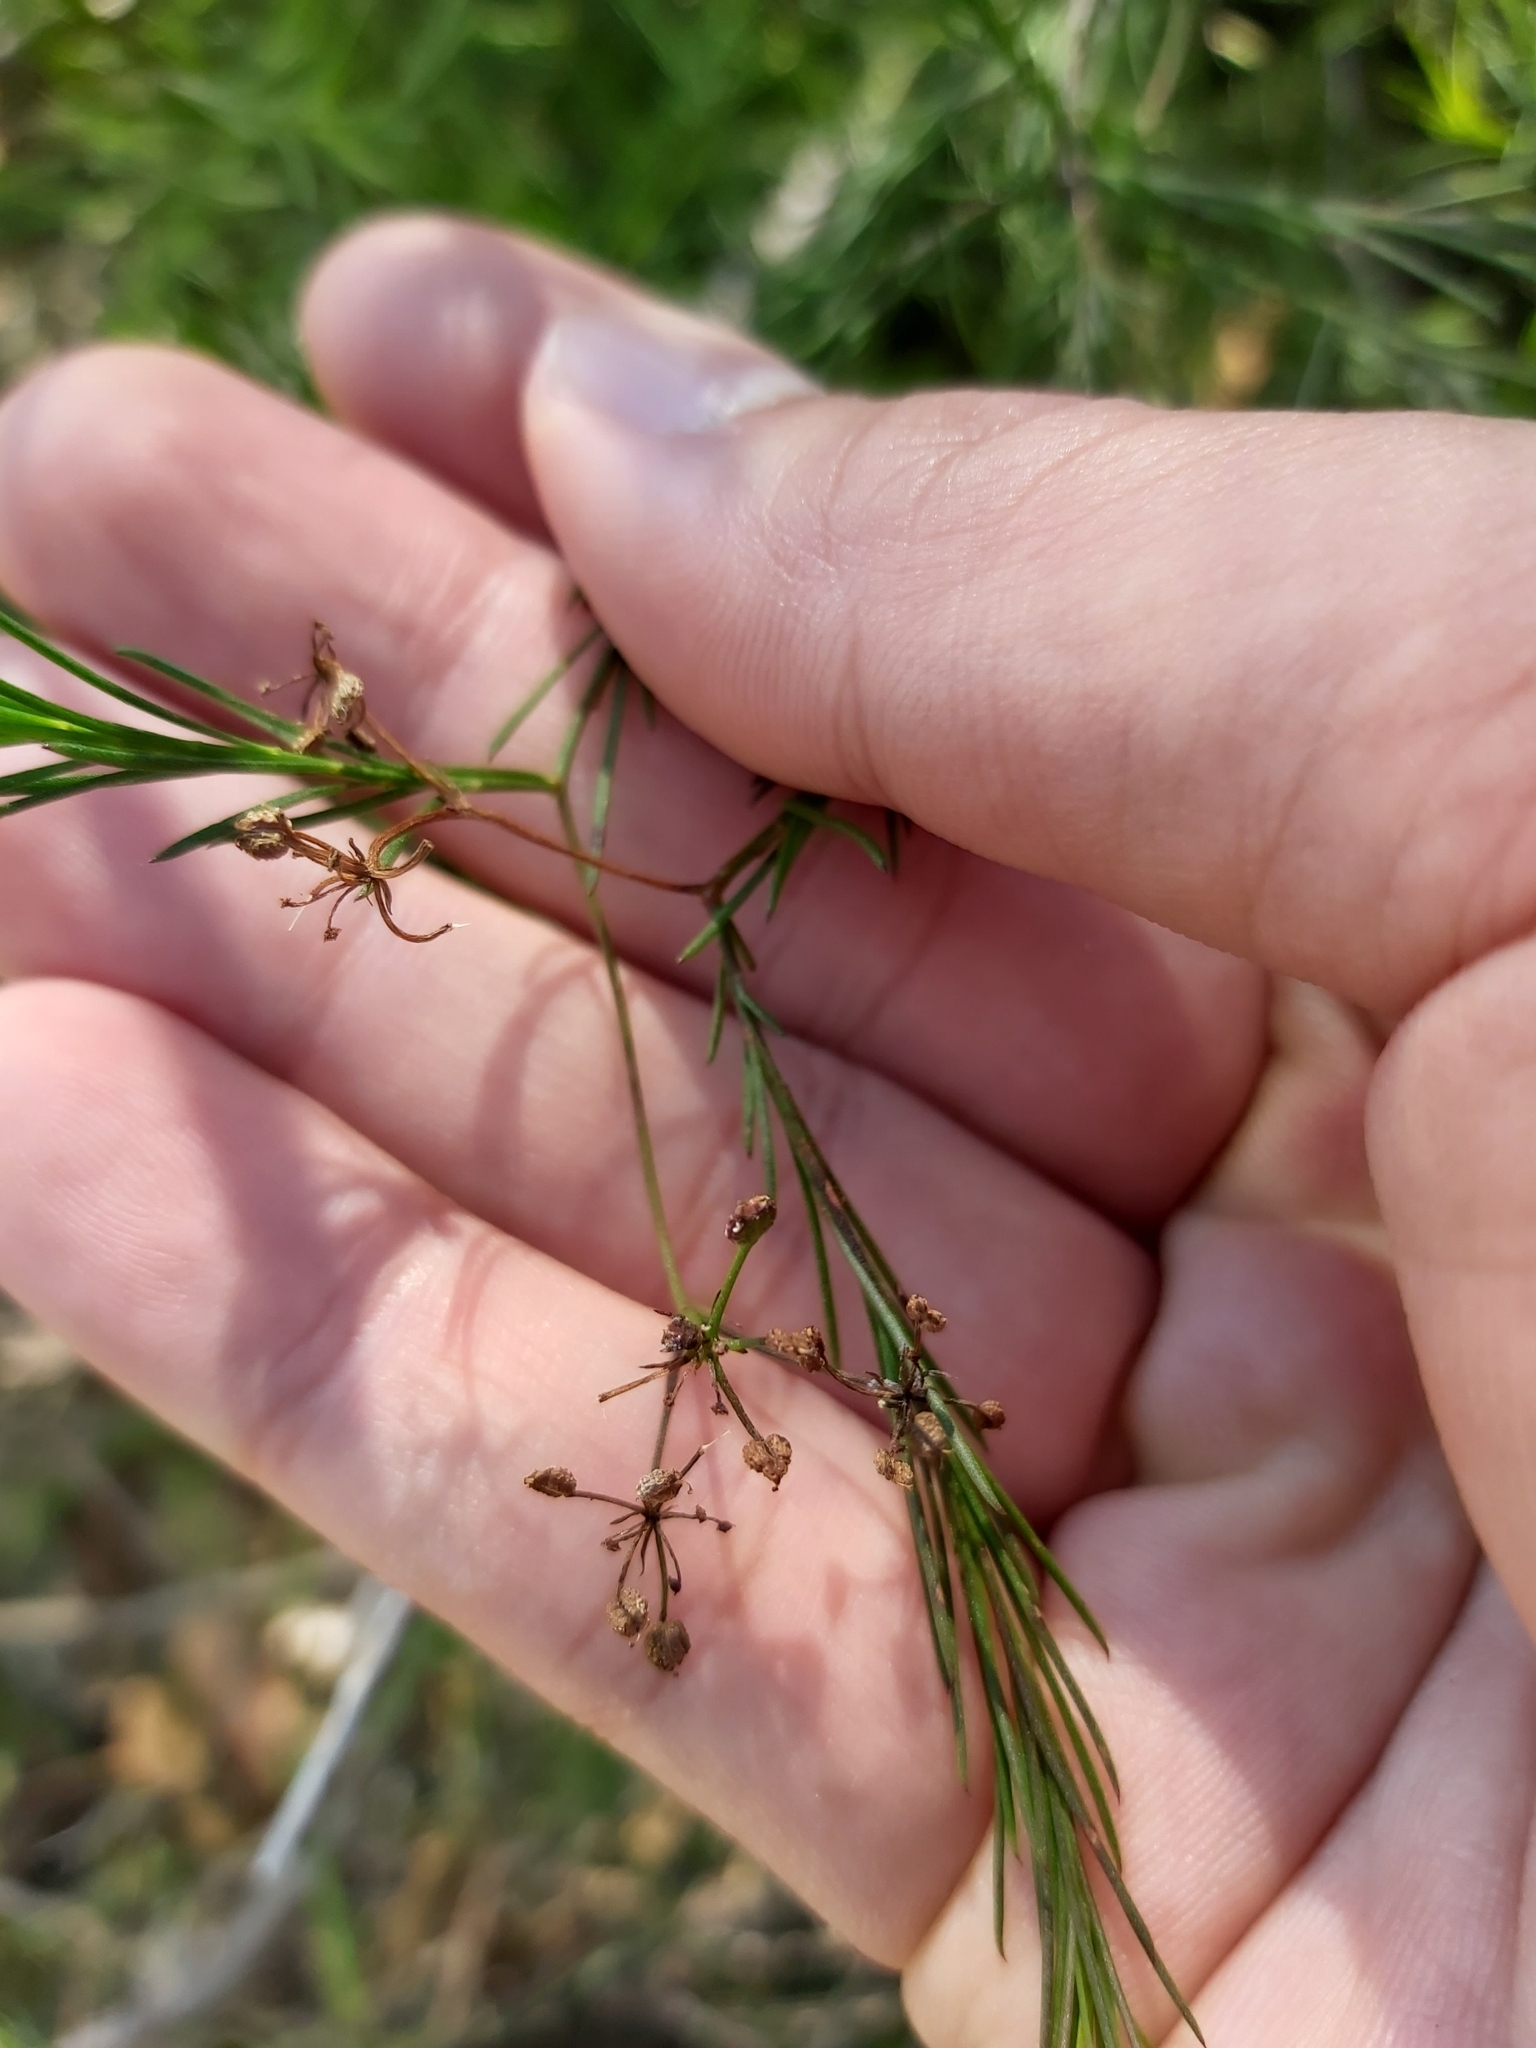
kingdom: Plantae
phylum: Tracheophyta
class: Magnoliopsida
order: Apiales
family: Apiaceae
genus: Platysace
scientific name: Platysace linearifolia
